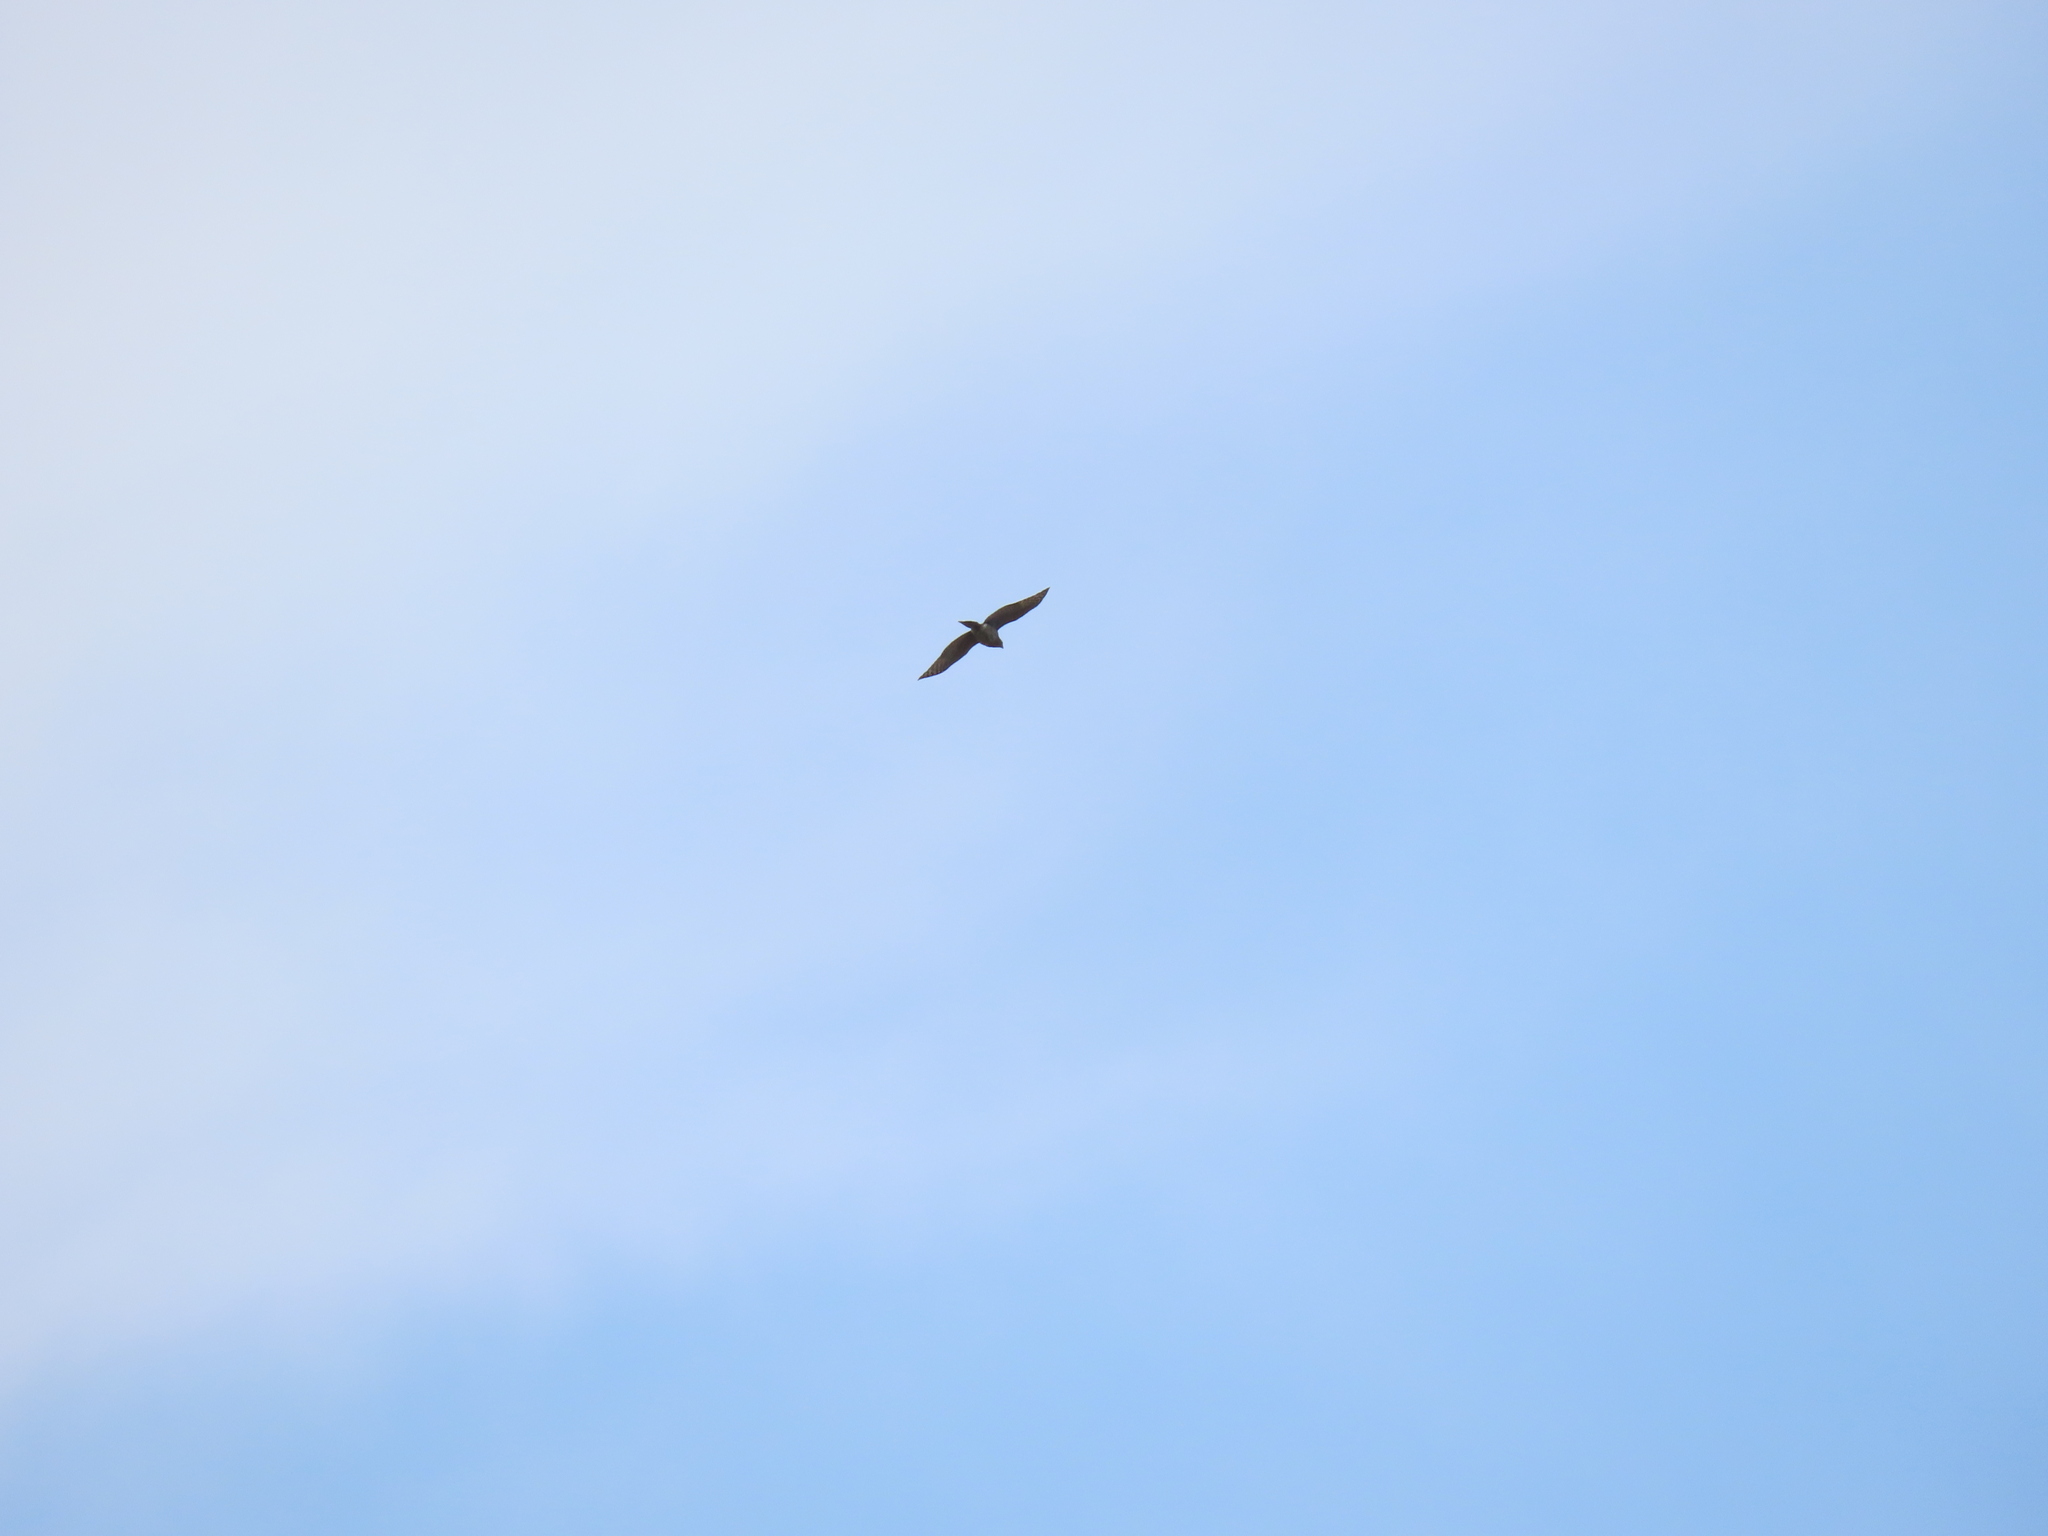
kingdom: Animalia
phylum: Chordata
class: Aves
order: Accipitriformes
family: Accipitridae
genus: Accipiter
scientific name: Accipiter cooperii
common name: Cooper's hawk
